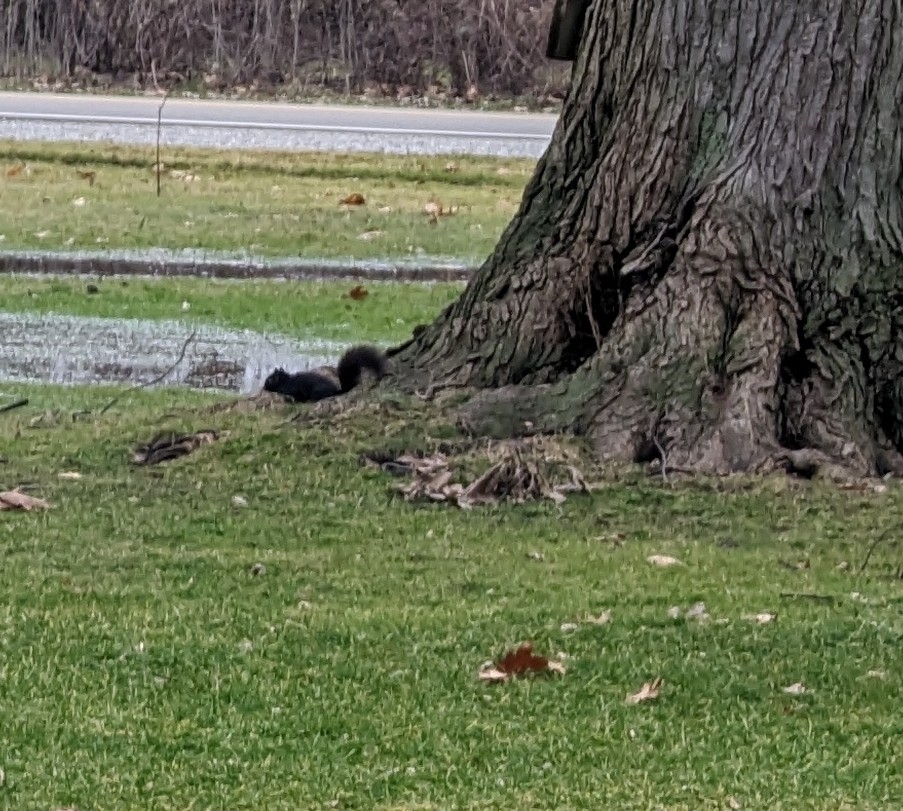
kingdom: Animalia
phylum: Chordata
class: Mammalia
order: Rodentia
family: Sciuridae
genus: Sciurus
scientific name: Sciurus carolinensis
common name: Eastern gray squirrel
